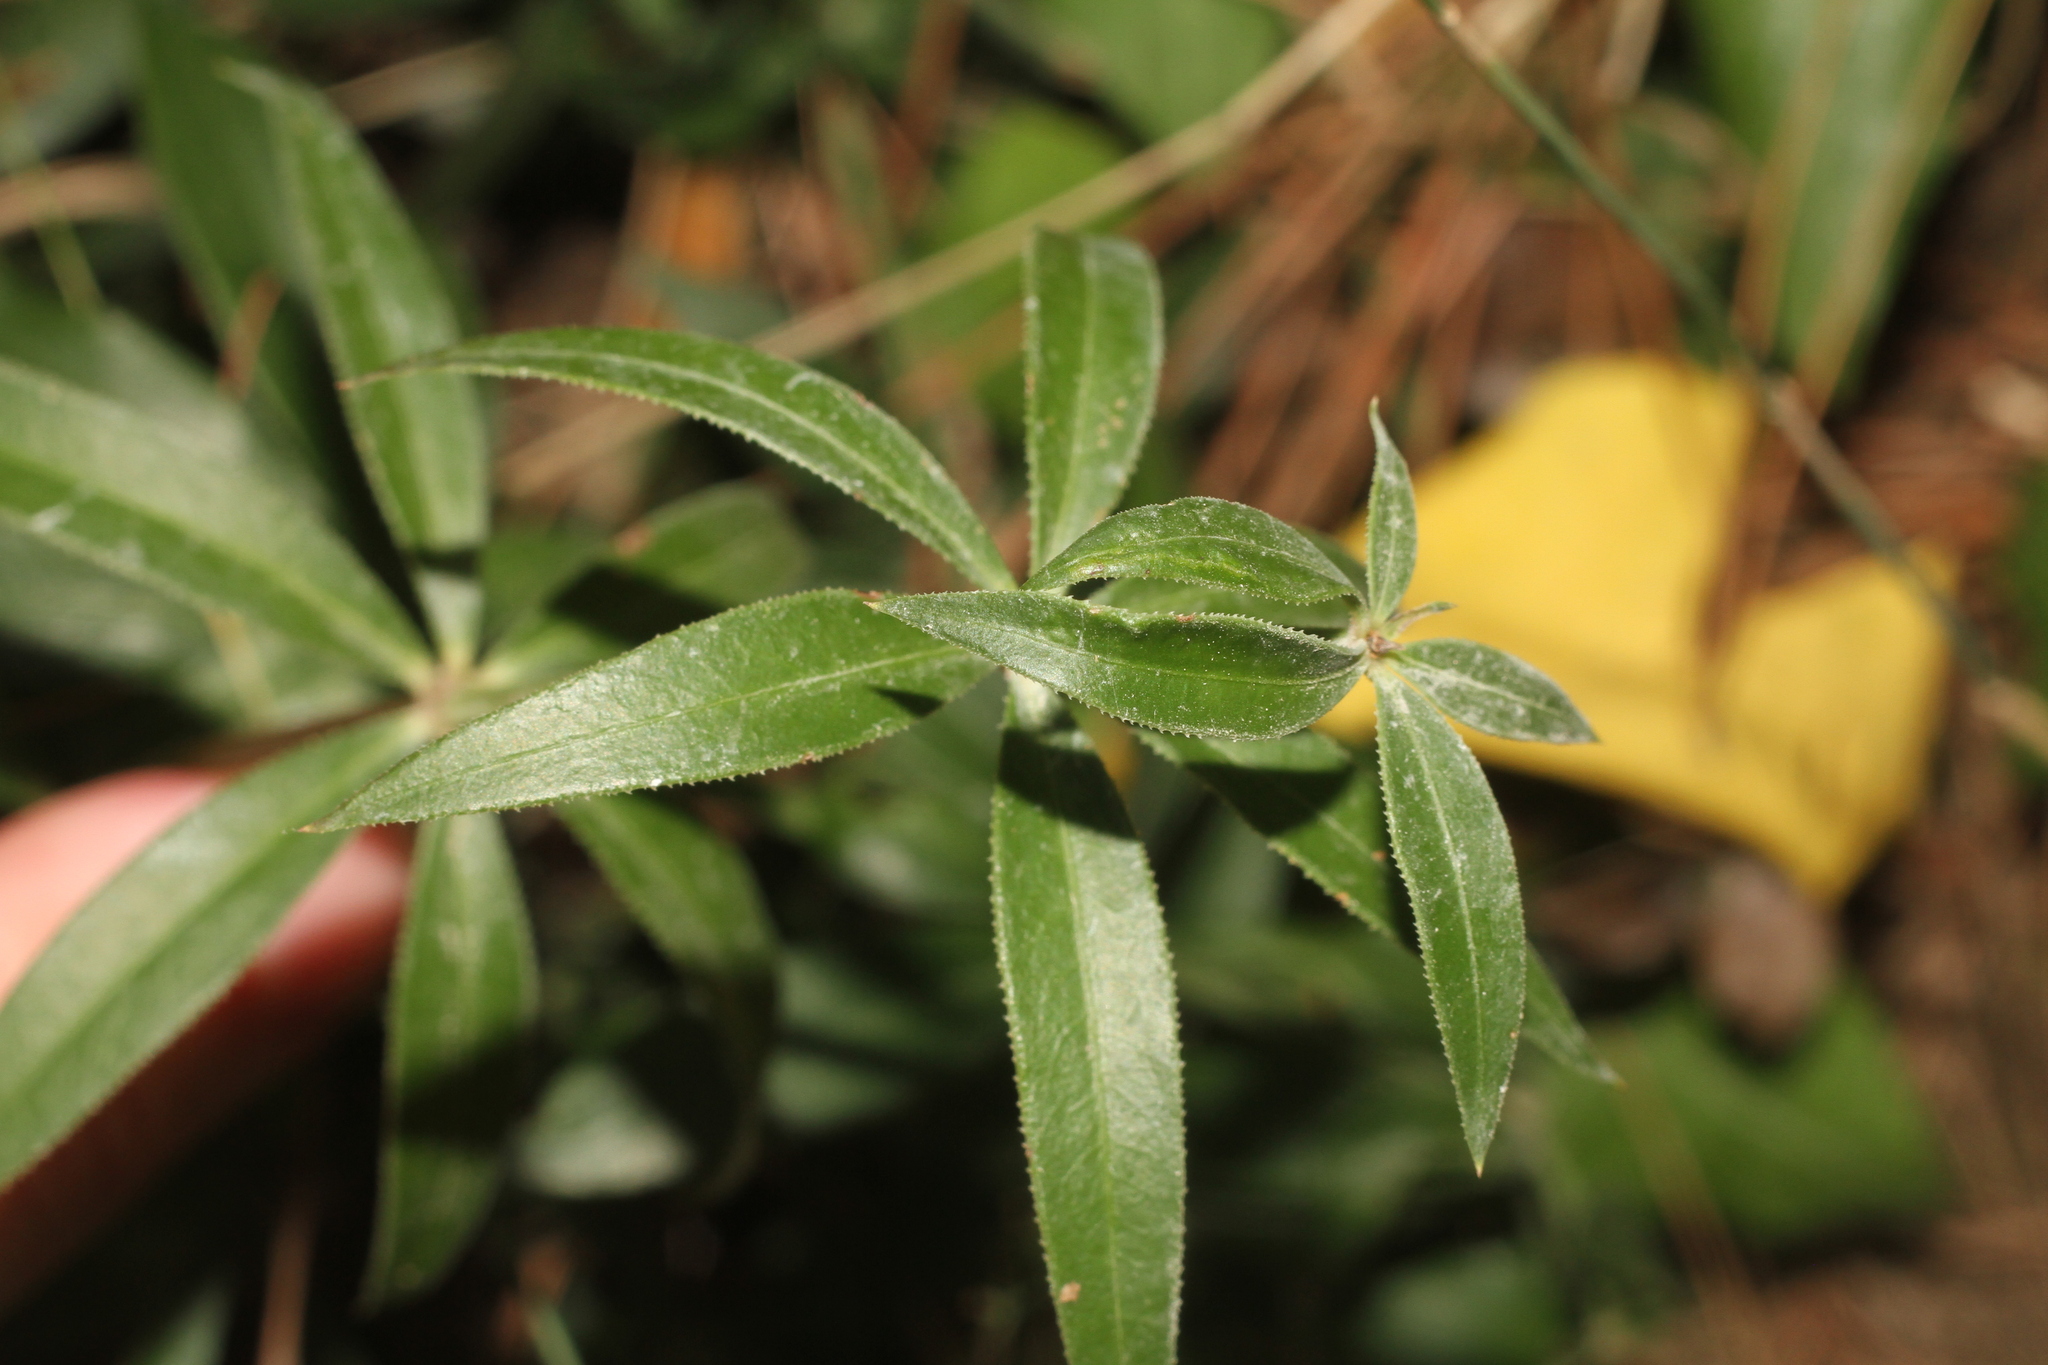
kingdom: Plantae
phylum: Tracheophyta
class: Magnoliopsida
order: Gentianales
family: Rubiaceae
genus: Rubia
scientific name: Rubia peregrina
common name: Wild madder
